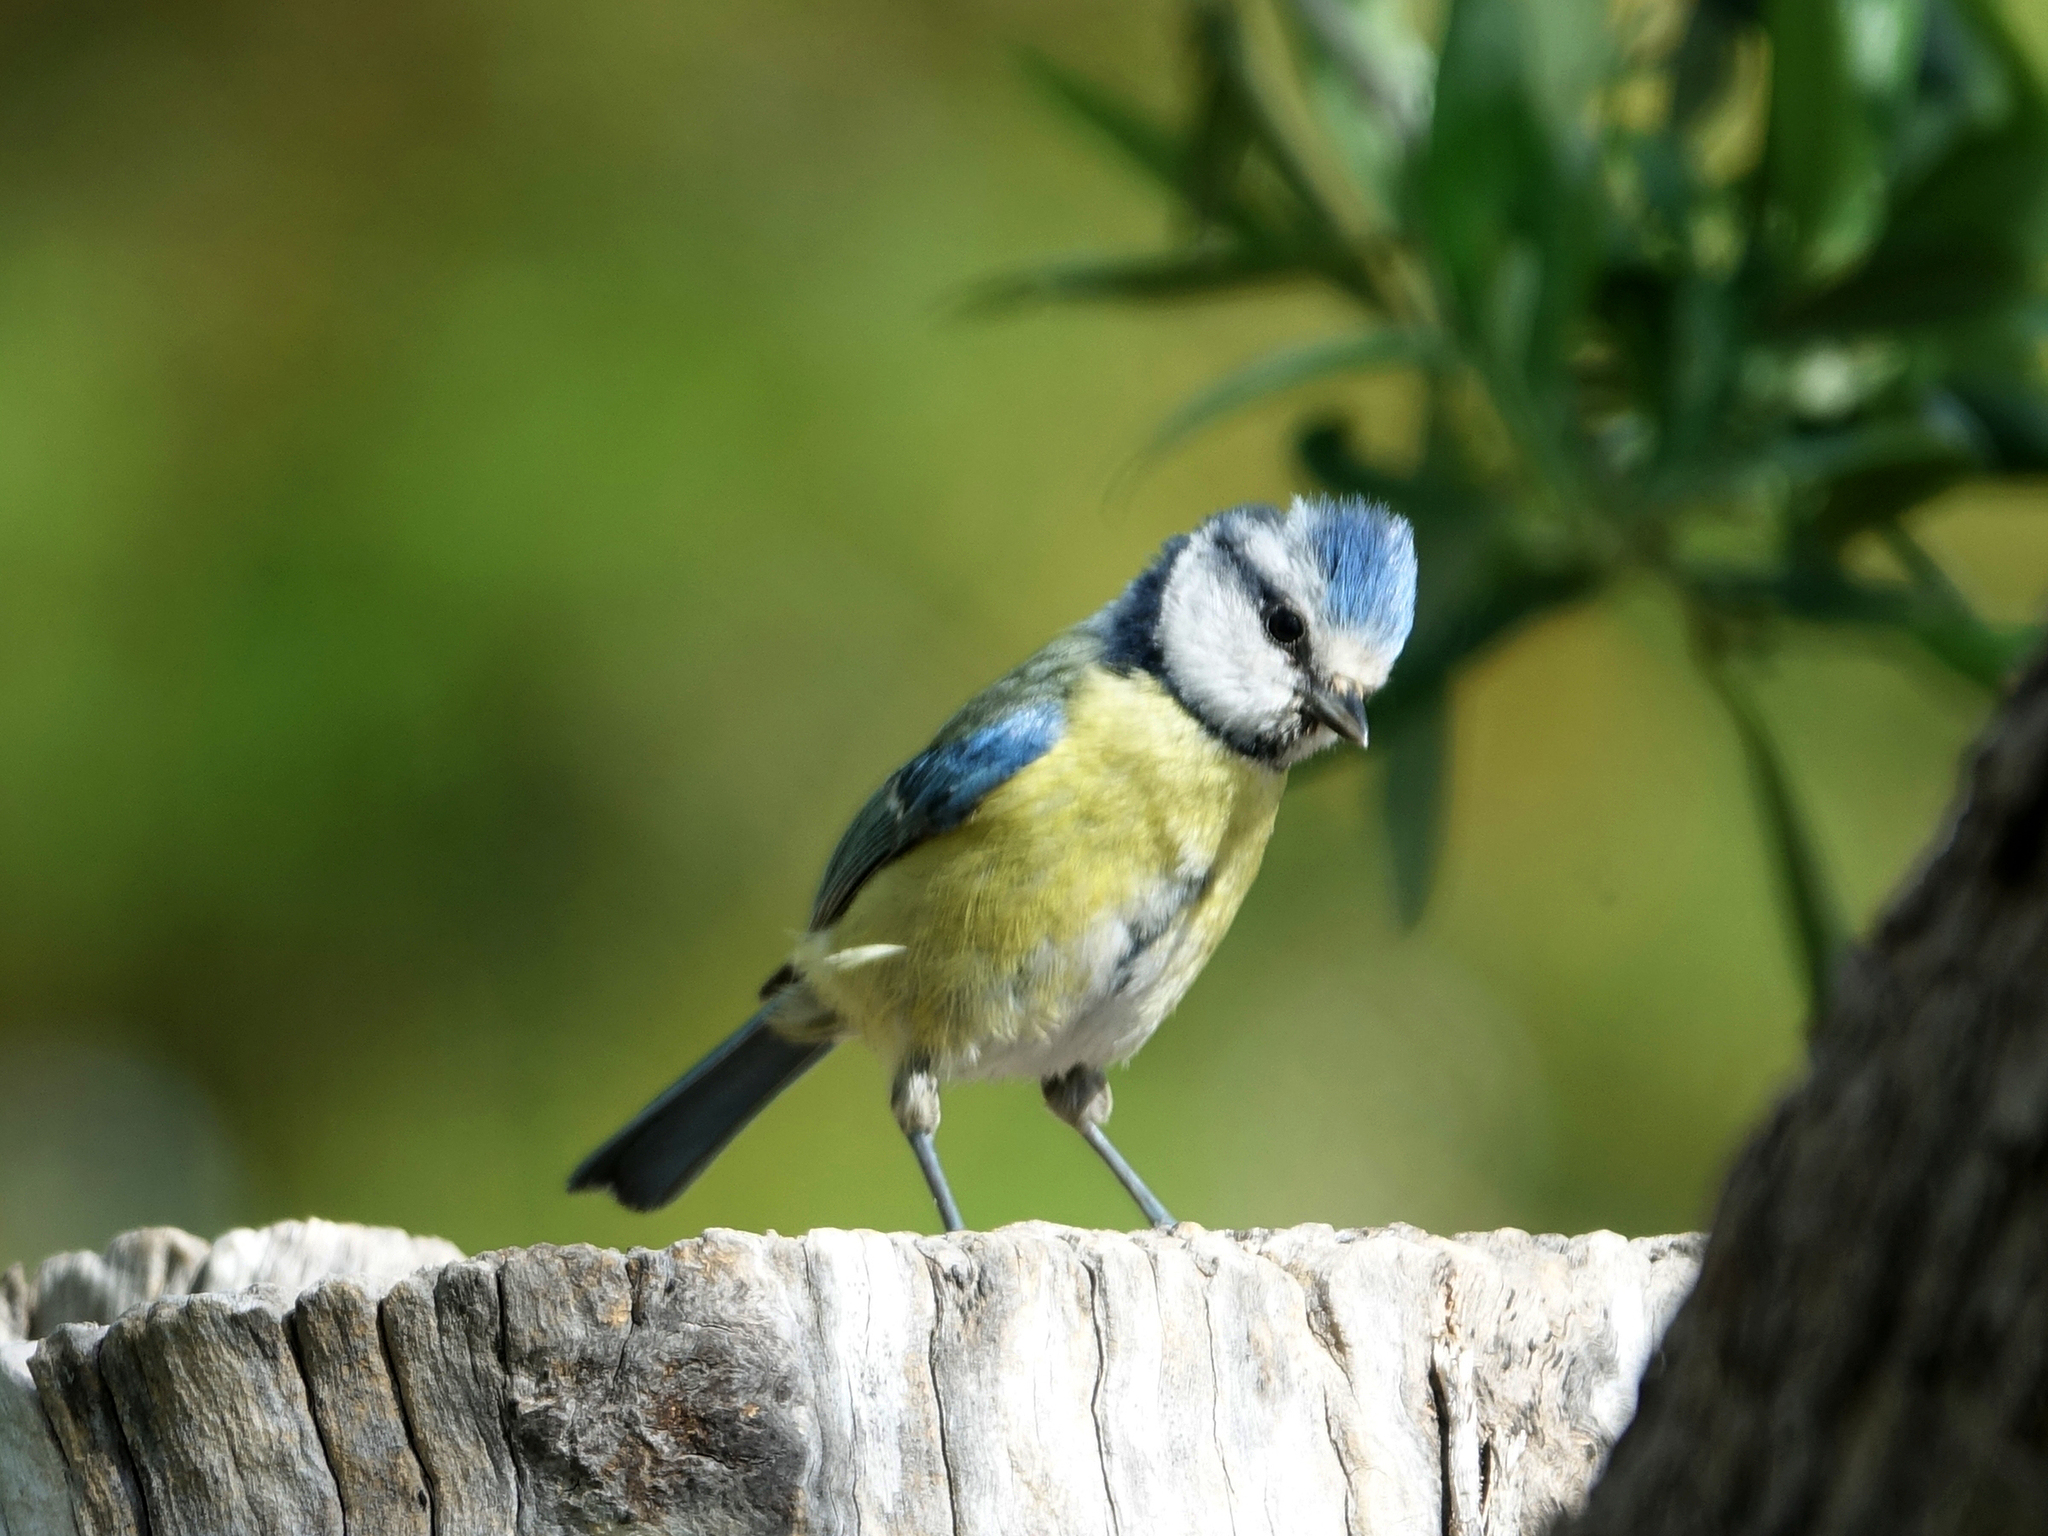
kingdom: Animalia
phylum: Chordata
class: Aves
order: Passeriformes
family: Paridae
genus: Cyanistes
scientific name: Cyanistes caeruleus
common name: Eurasian blue tit
